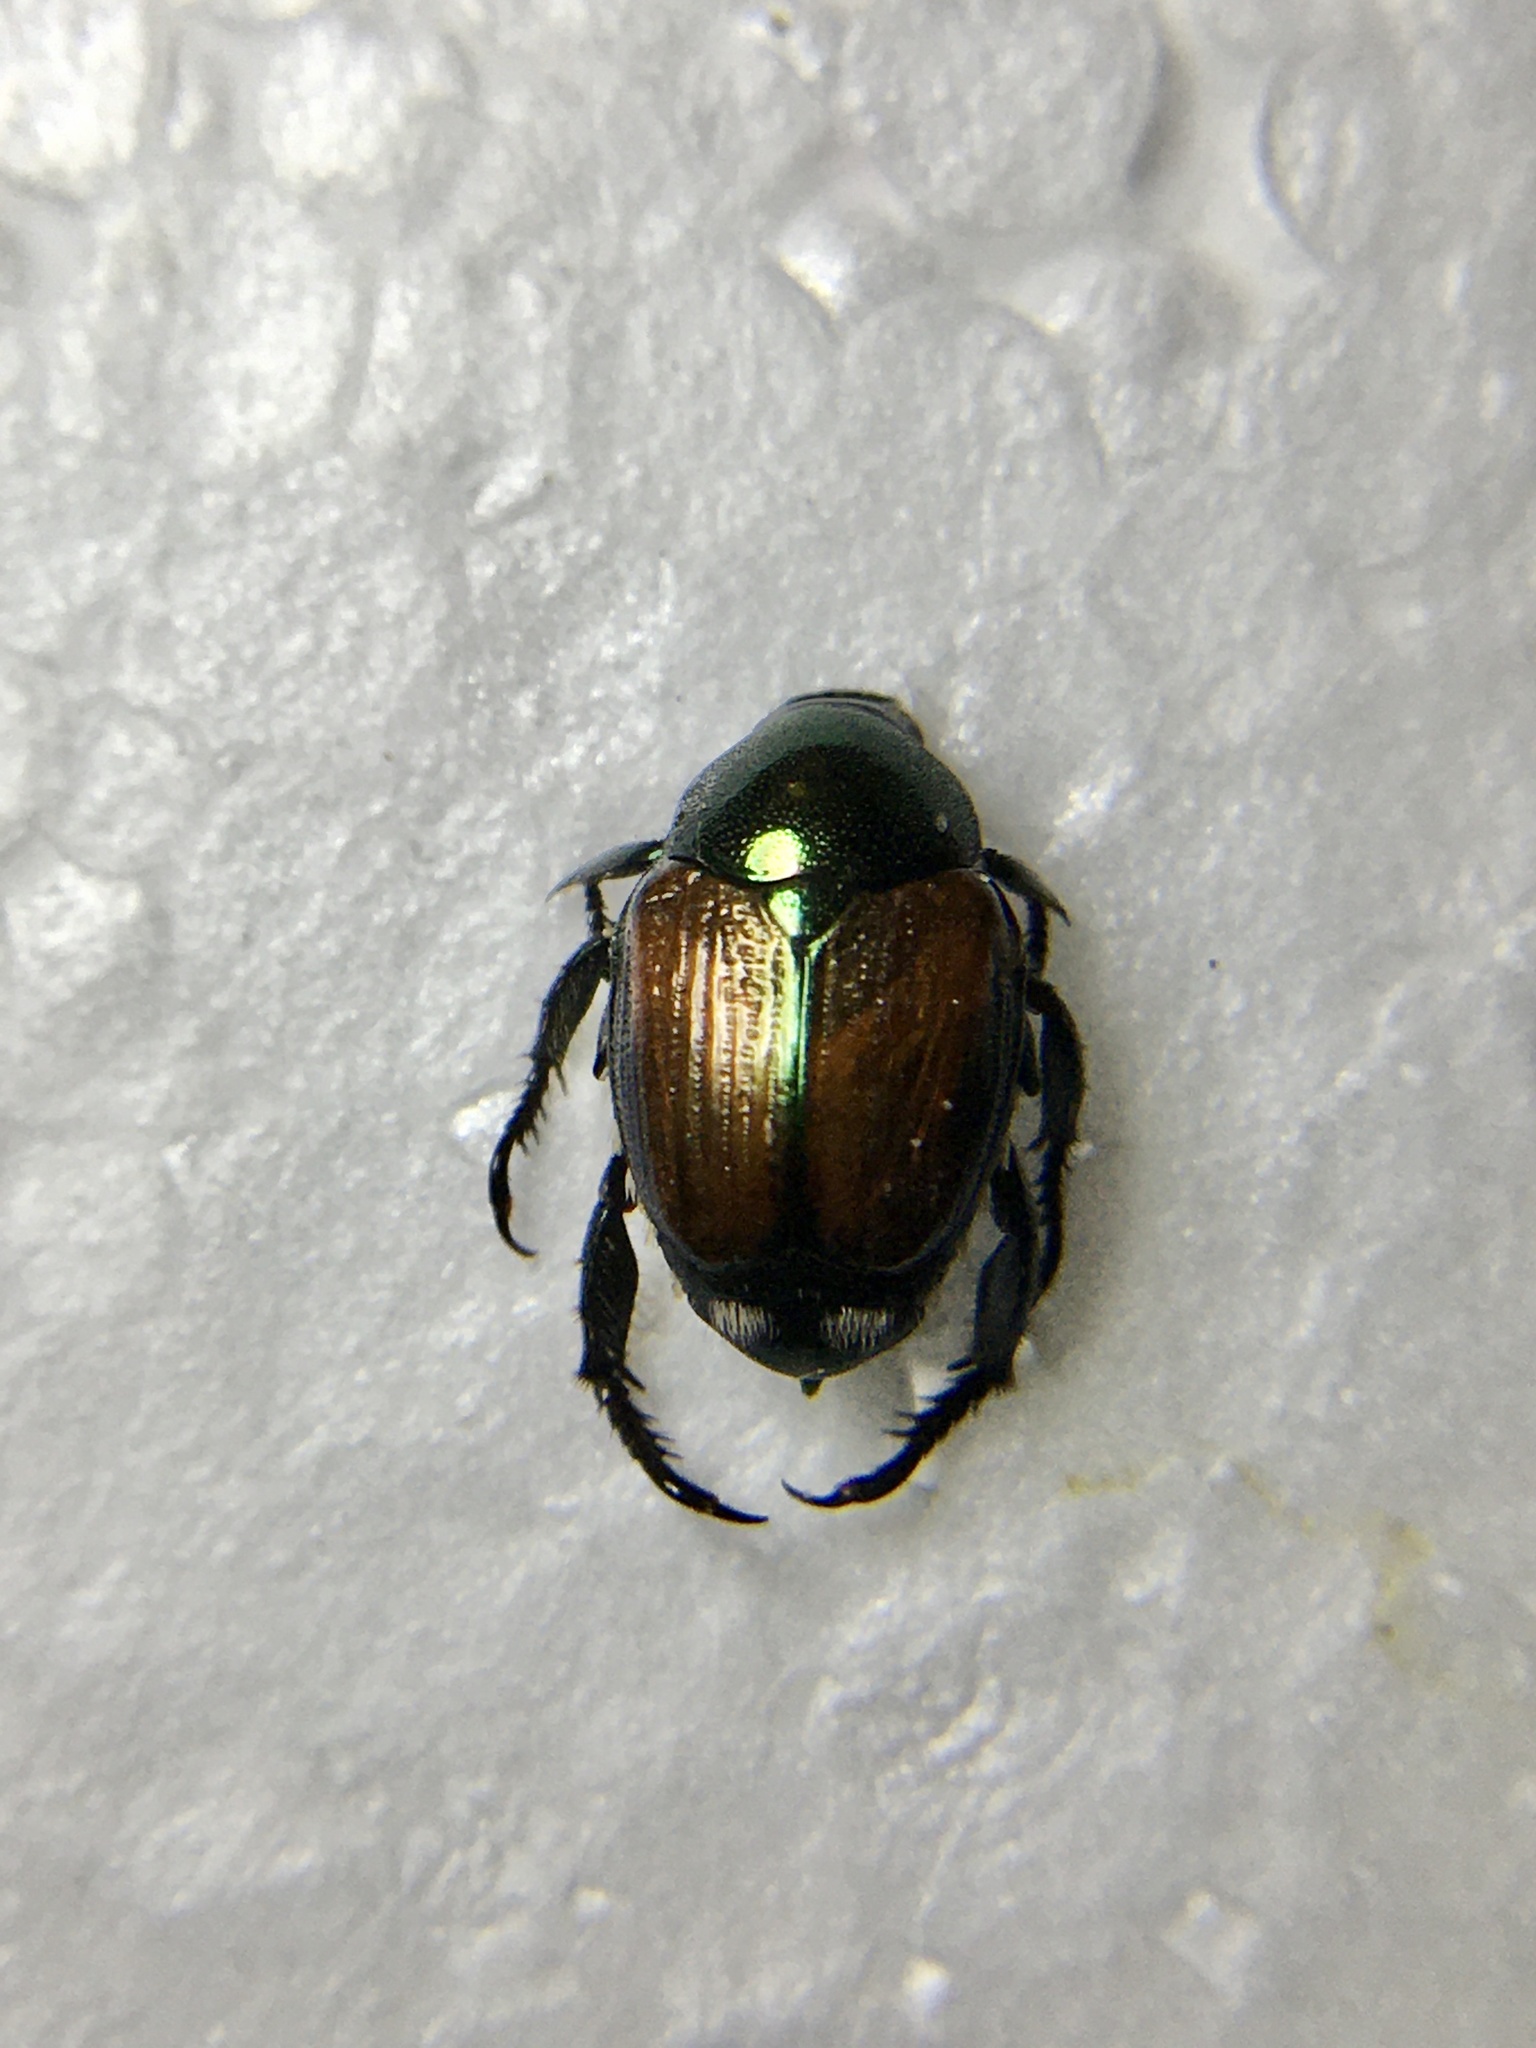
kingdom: Animalia
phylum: Arthropoda
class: Insecta
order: Coleoptera
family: Scarabaeidae
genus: Popillia
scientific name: Popillia japonica
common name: Japanese beetle
